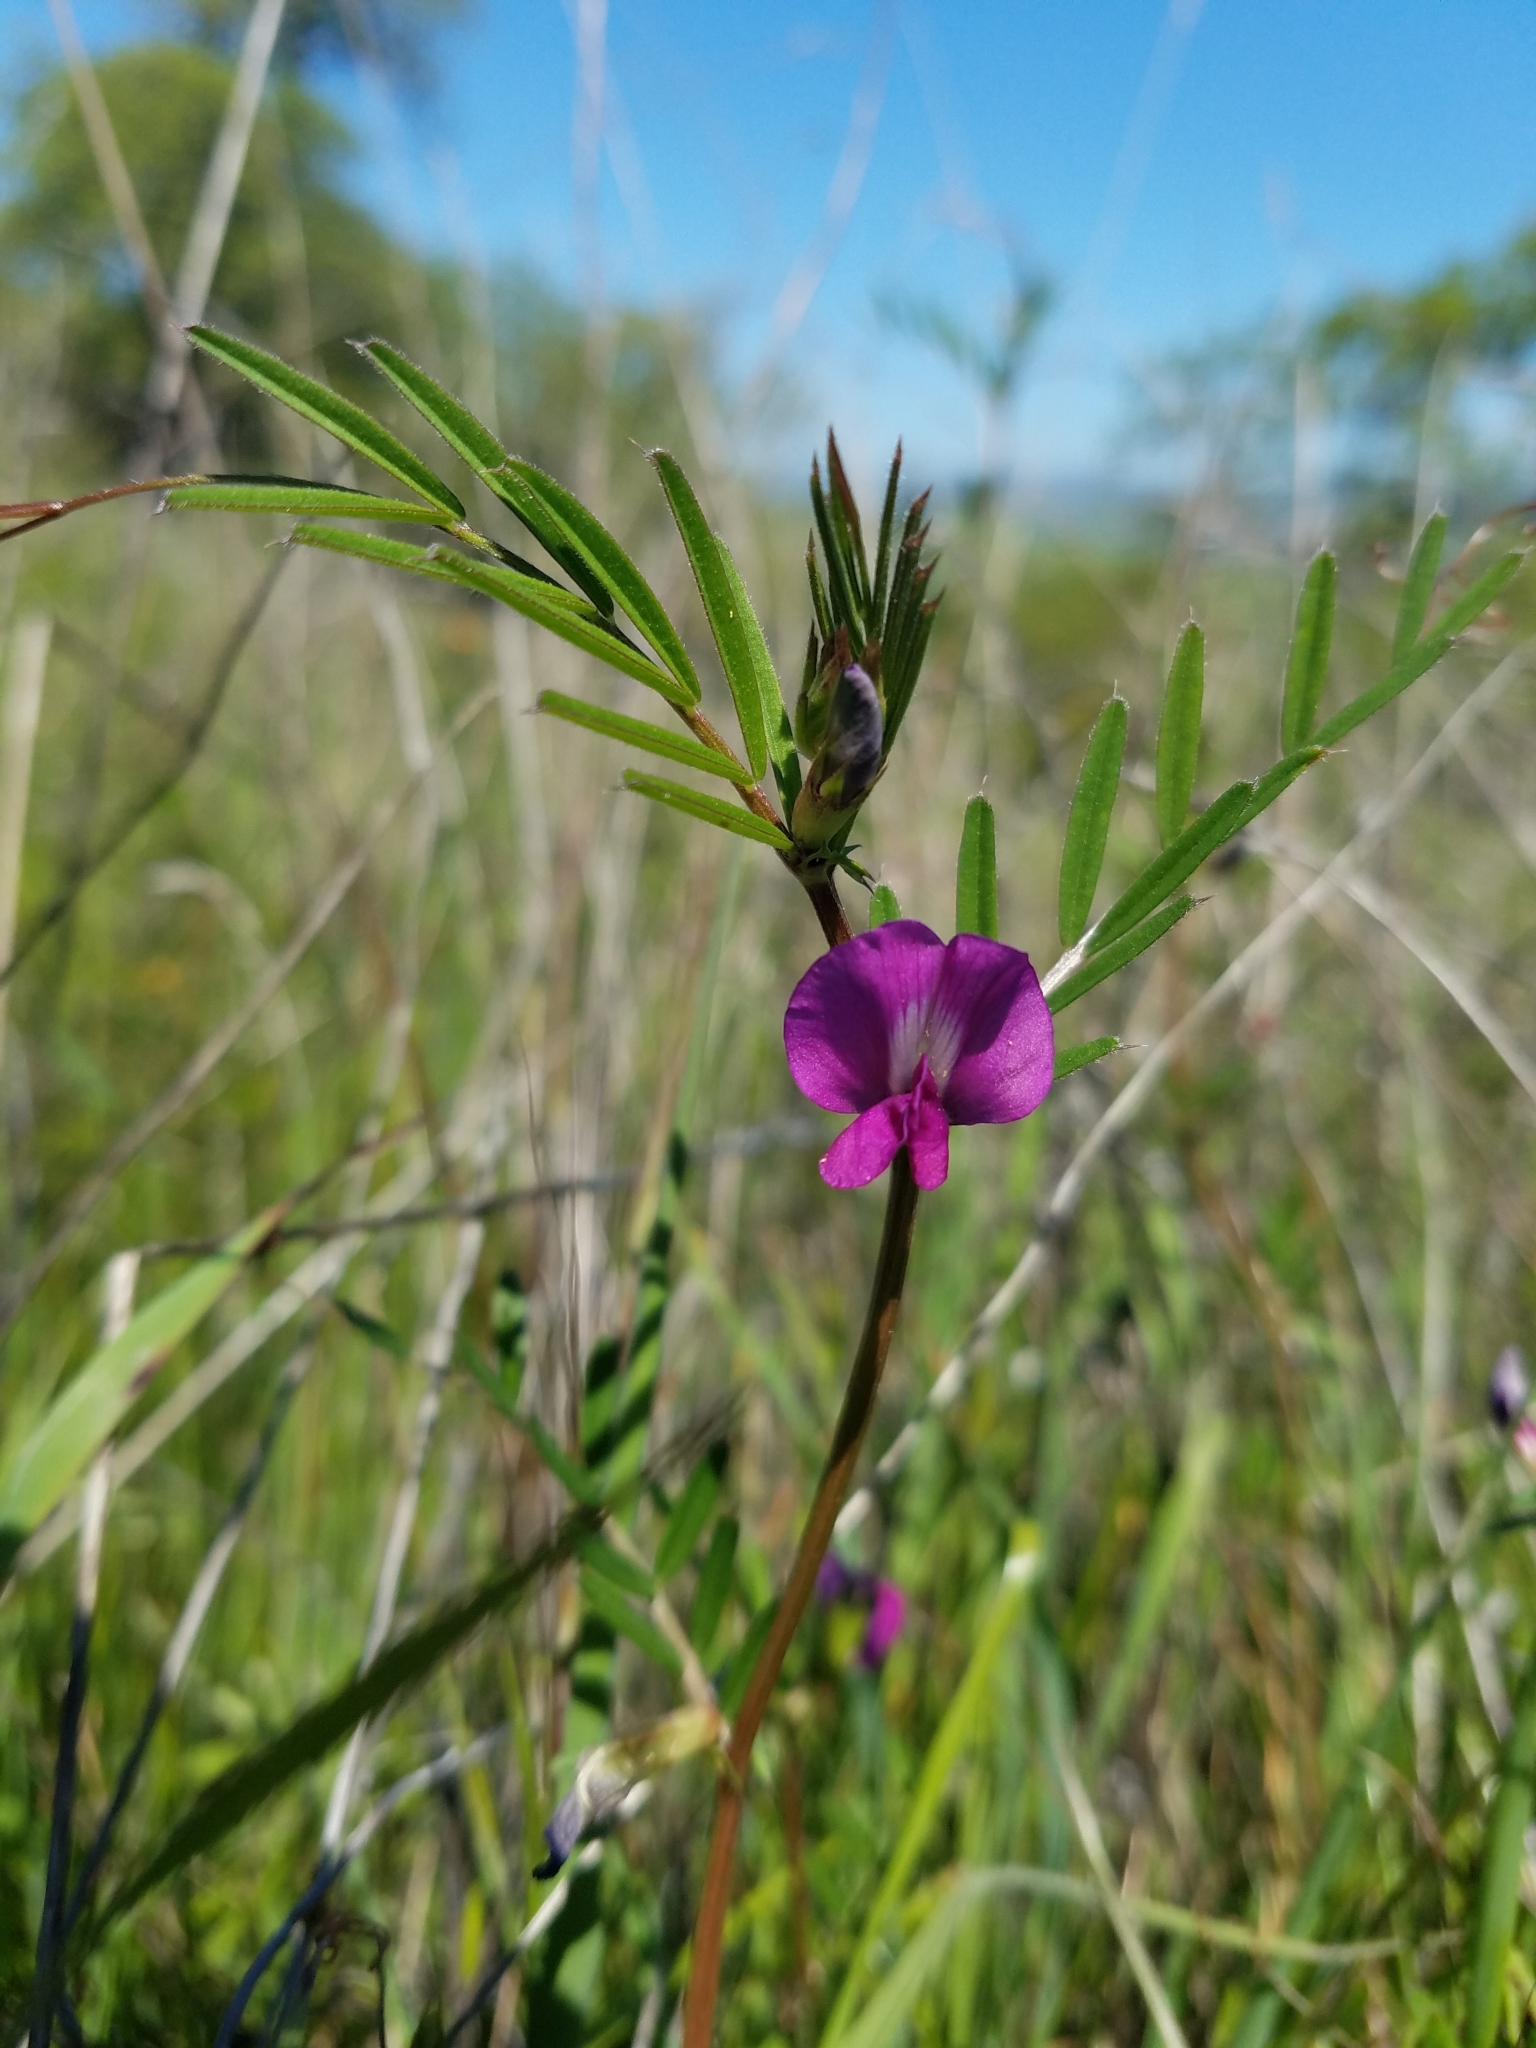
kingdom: Plantae
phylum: Tracheophyta
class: Magnoliopsida
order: Fabales
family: Fabaceae
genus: Vicia
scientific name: Vicia sativa
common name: Garden vetch
